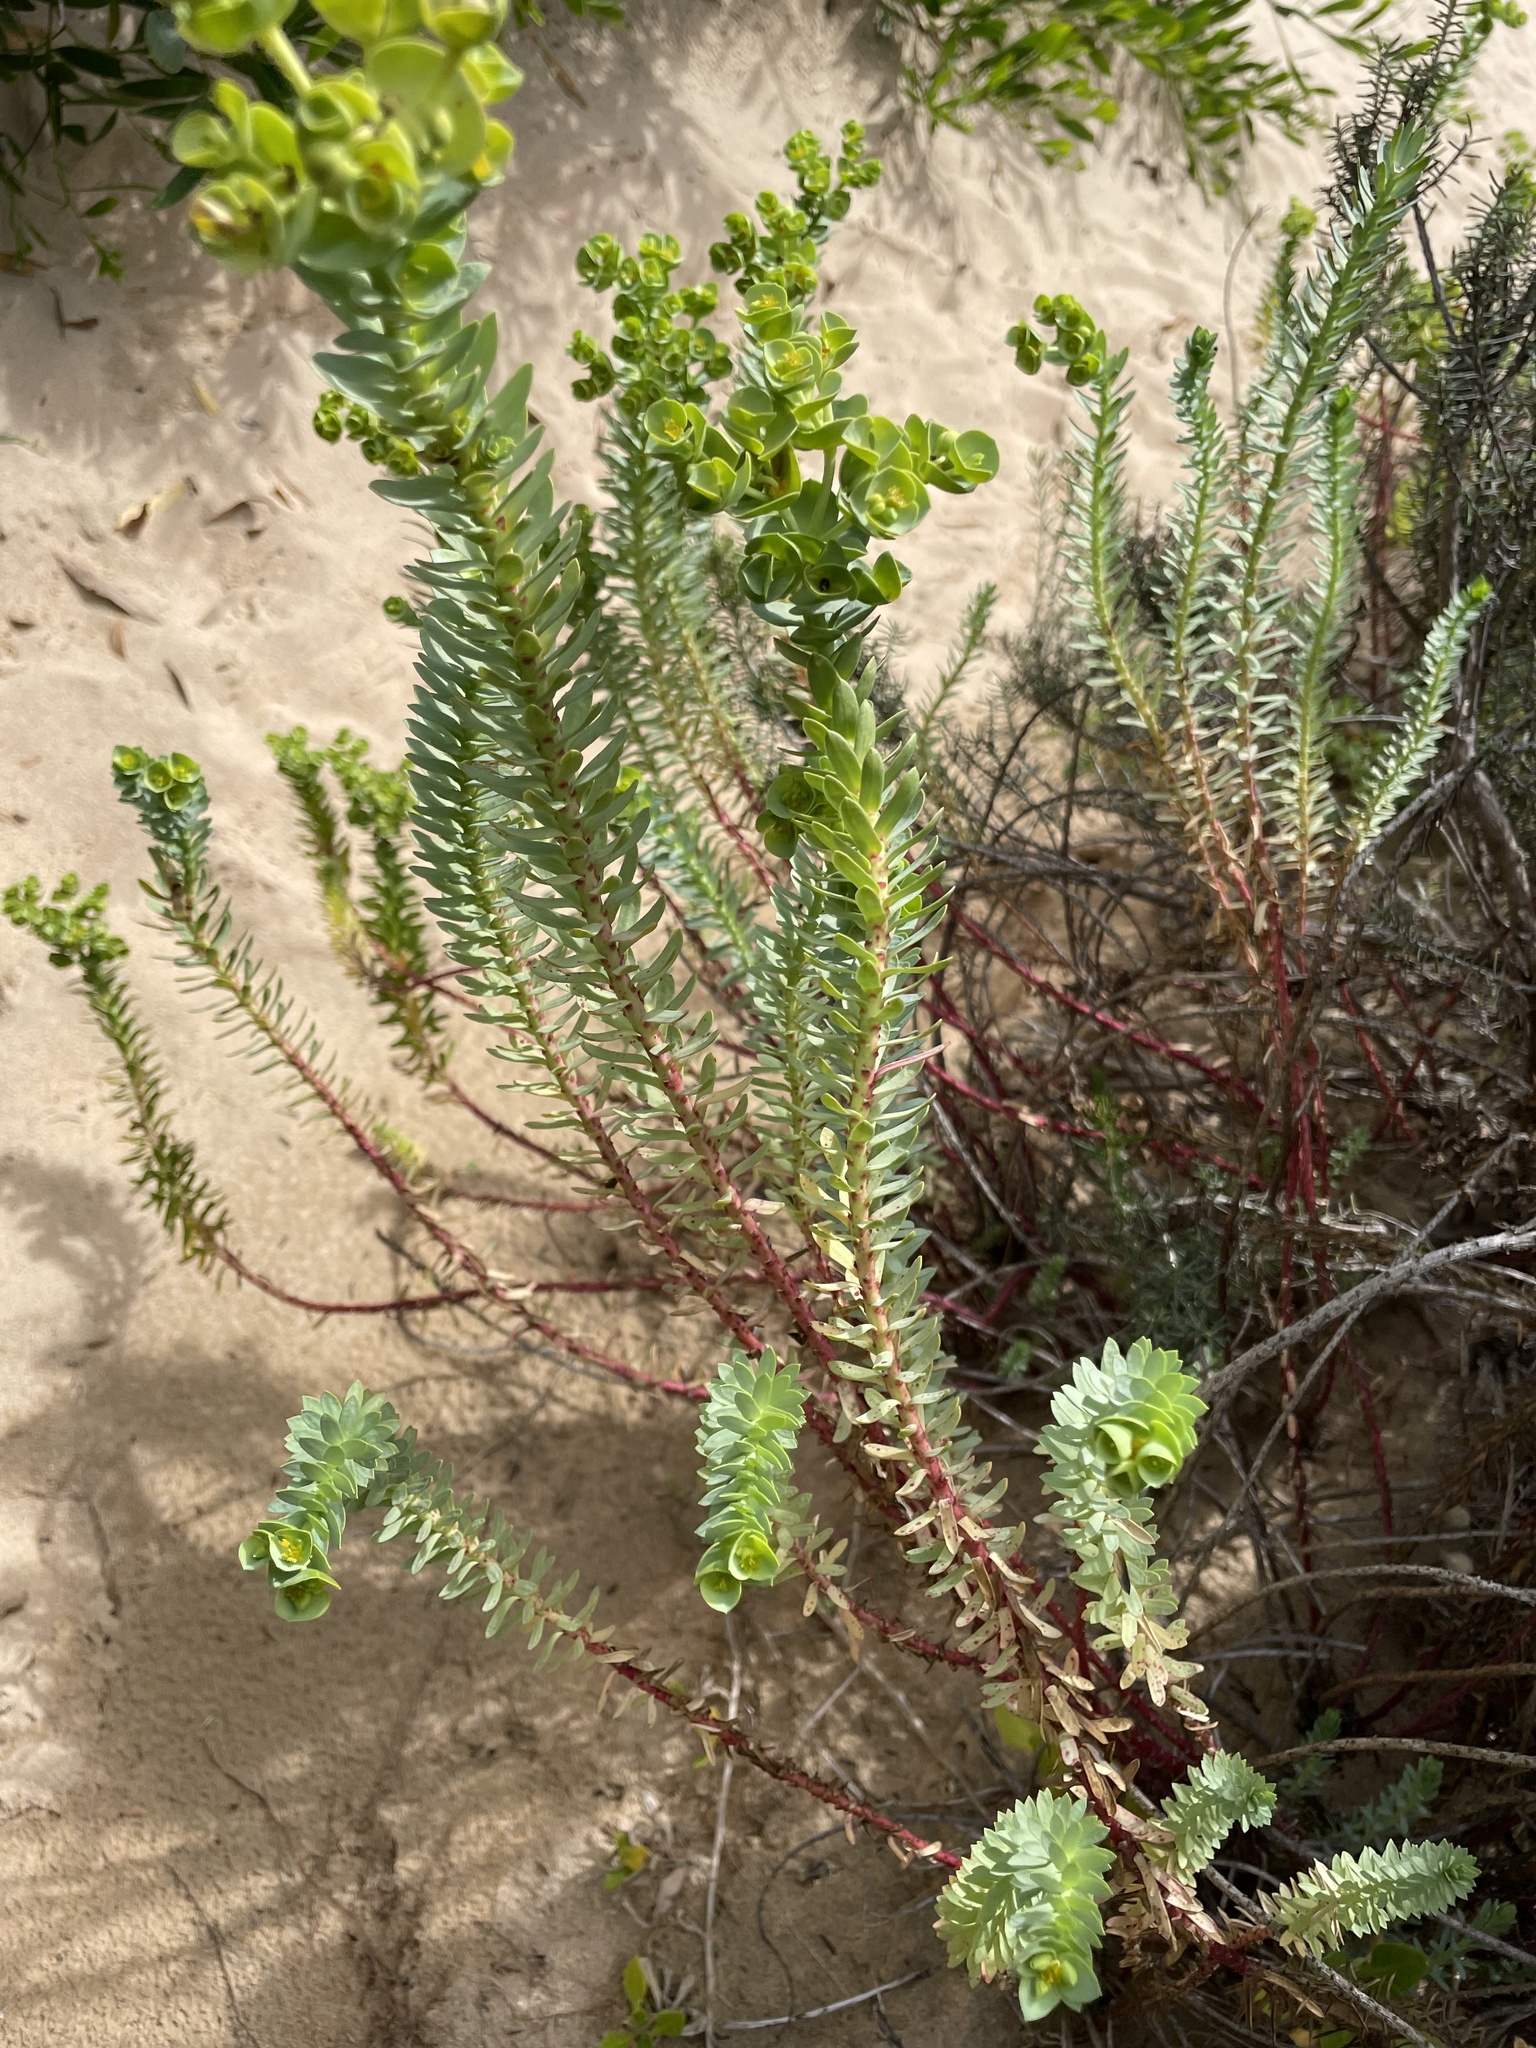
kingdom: Plantae
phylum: Tracheophyta
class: Magnoliopsida
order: Malpighiales
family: Euphorbiaceae
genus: Euphorbia
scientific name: Euphorbia paralias
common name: Sea spurge
